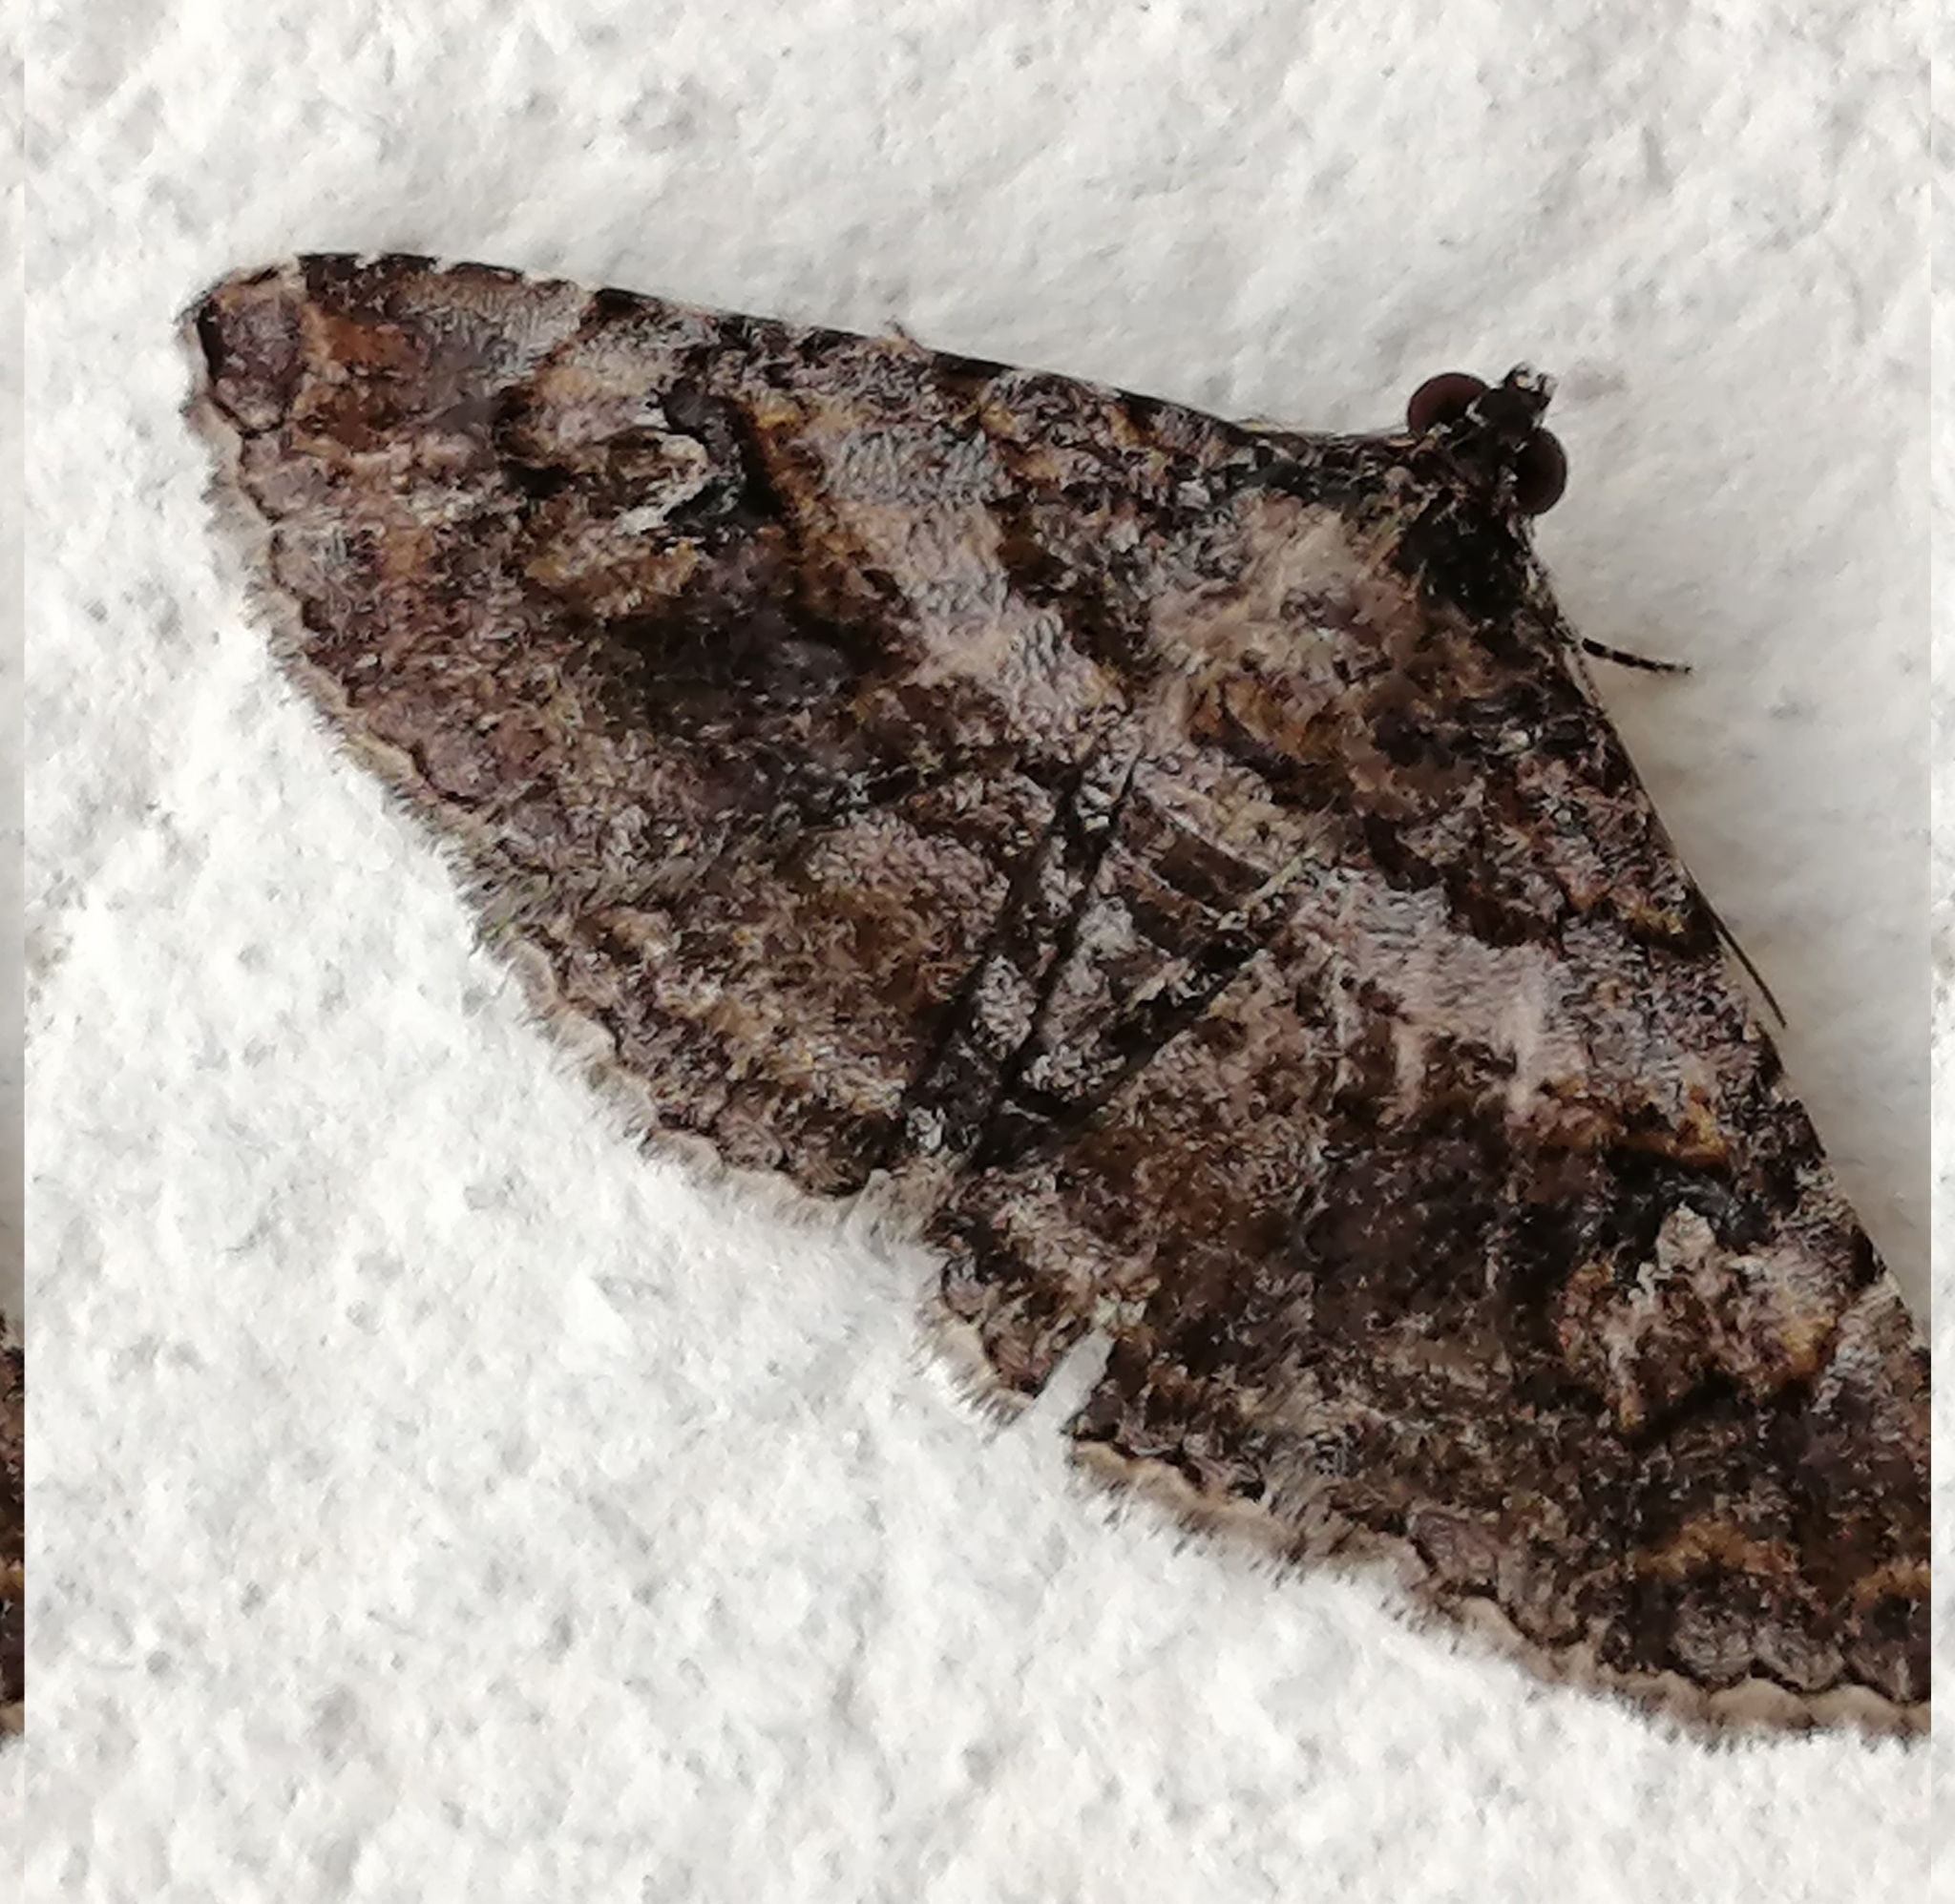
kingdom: Animalia
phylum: Arthropoda
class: Insecta
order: Lepidoptera
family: Erebidae
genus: Zaleops
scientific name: Zaleops umbrina
